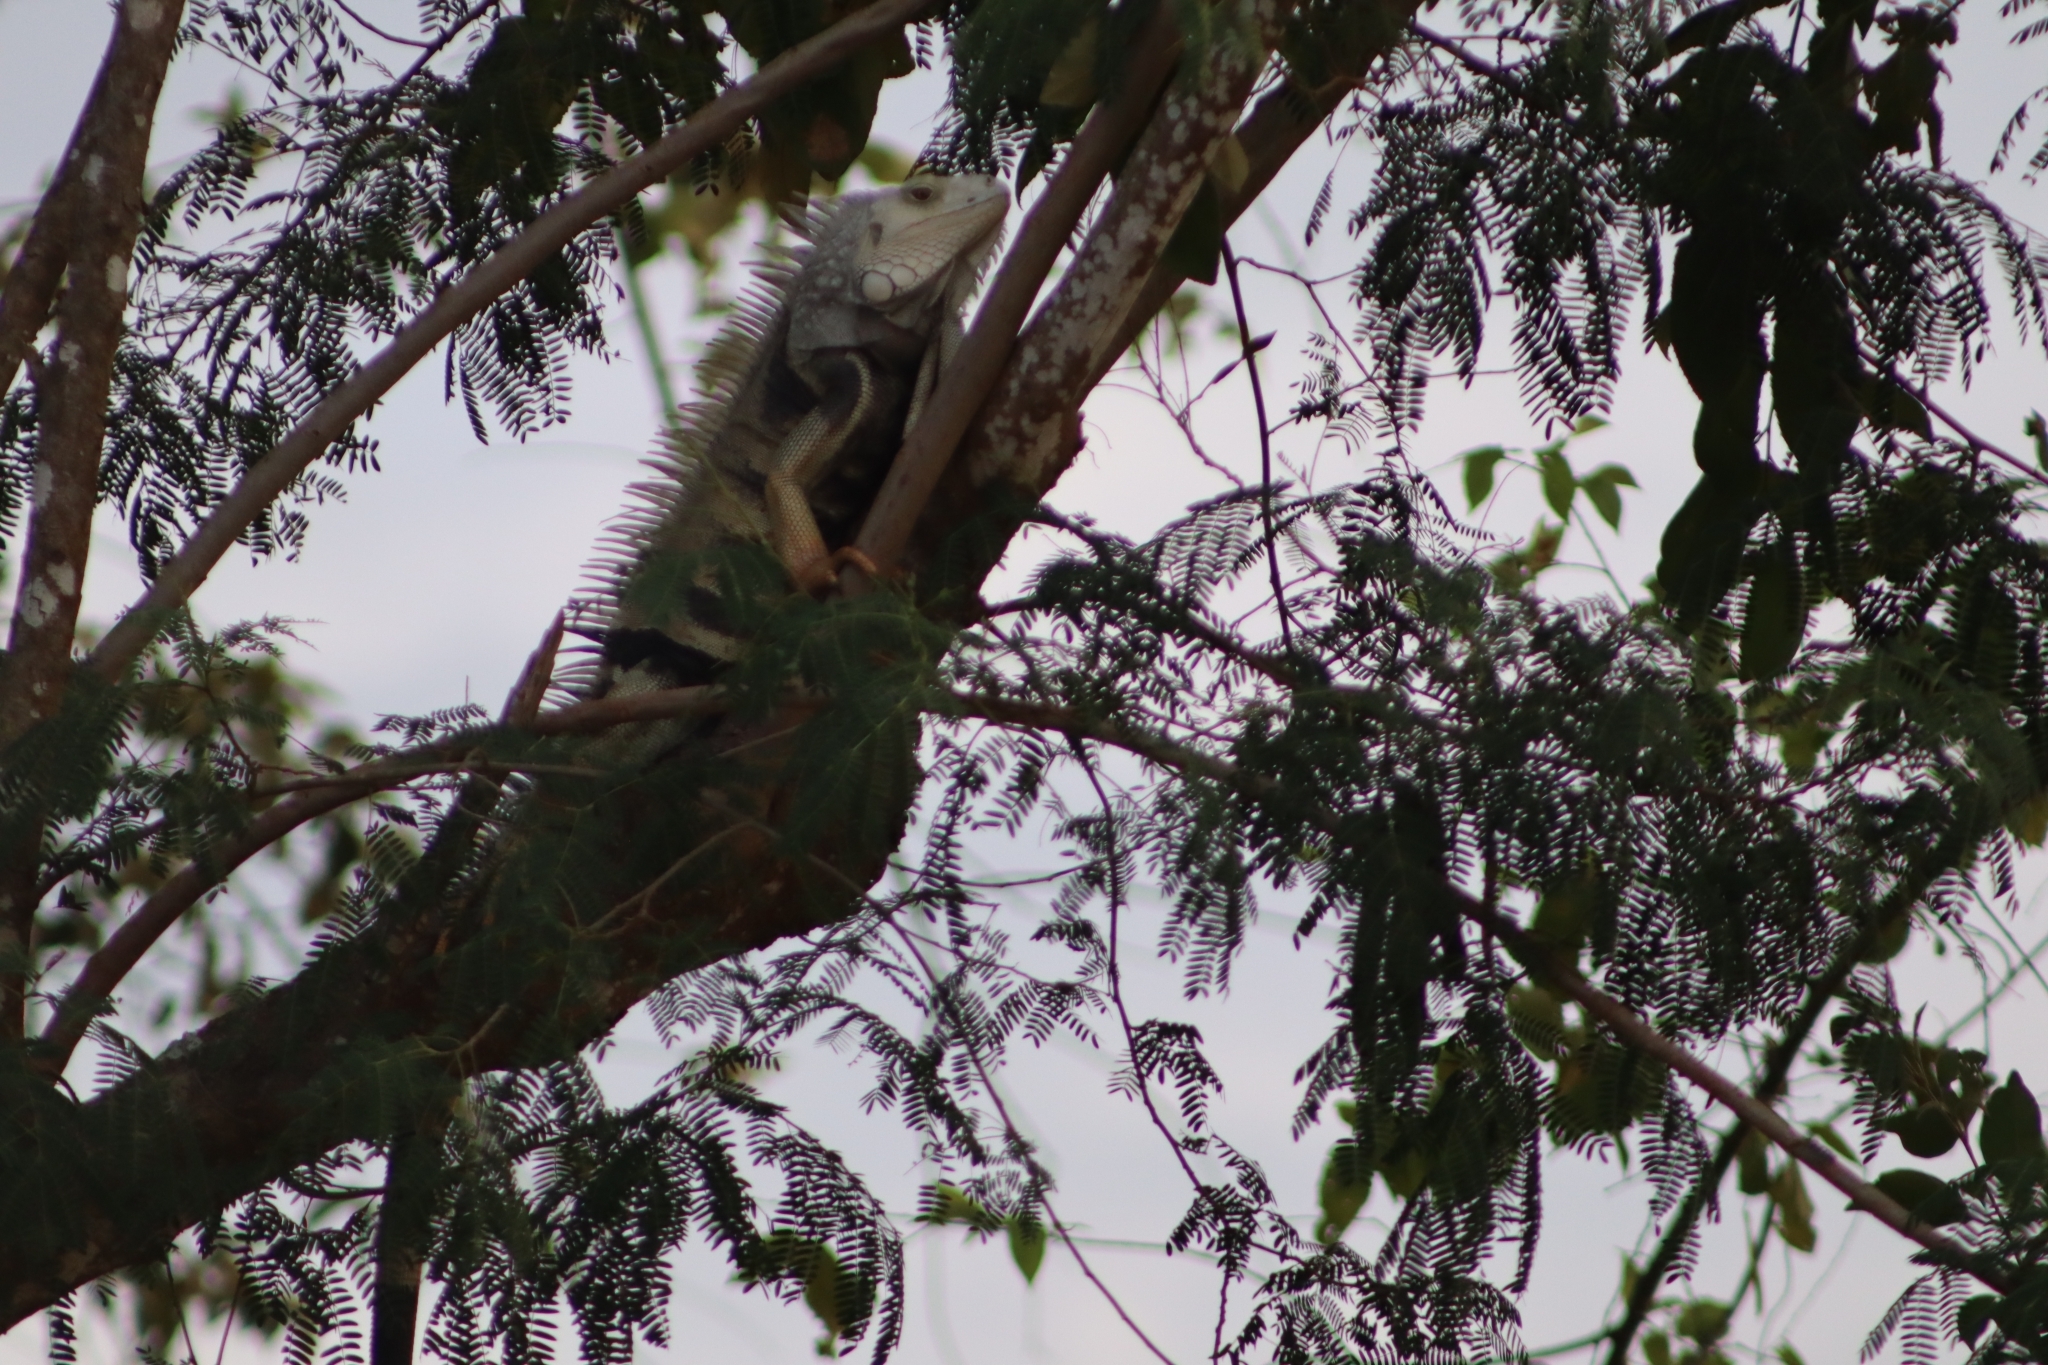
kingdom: Animalia
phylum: Chordata
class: Squamata
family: Iguanidae
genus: Iguana
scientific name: Iguana iguana
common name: Green iguana
